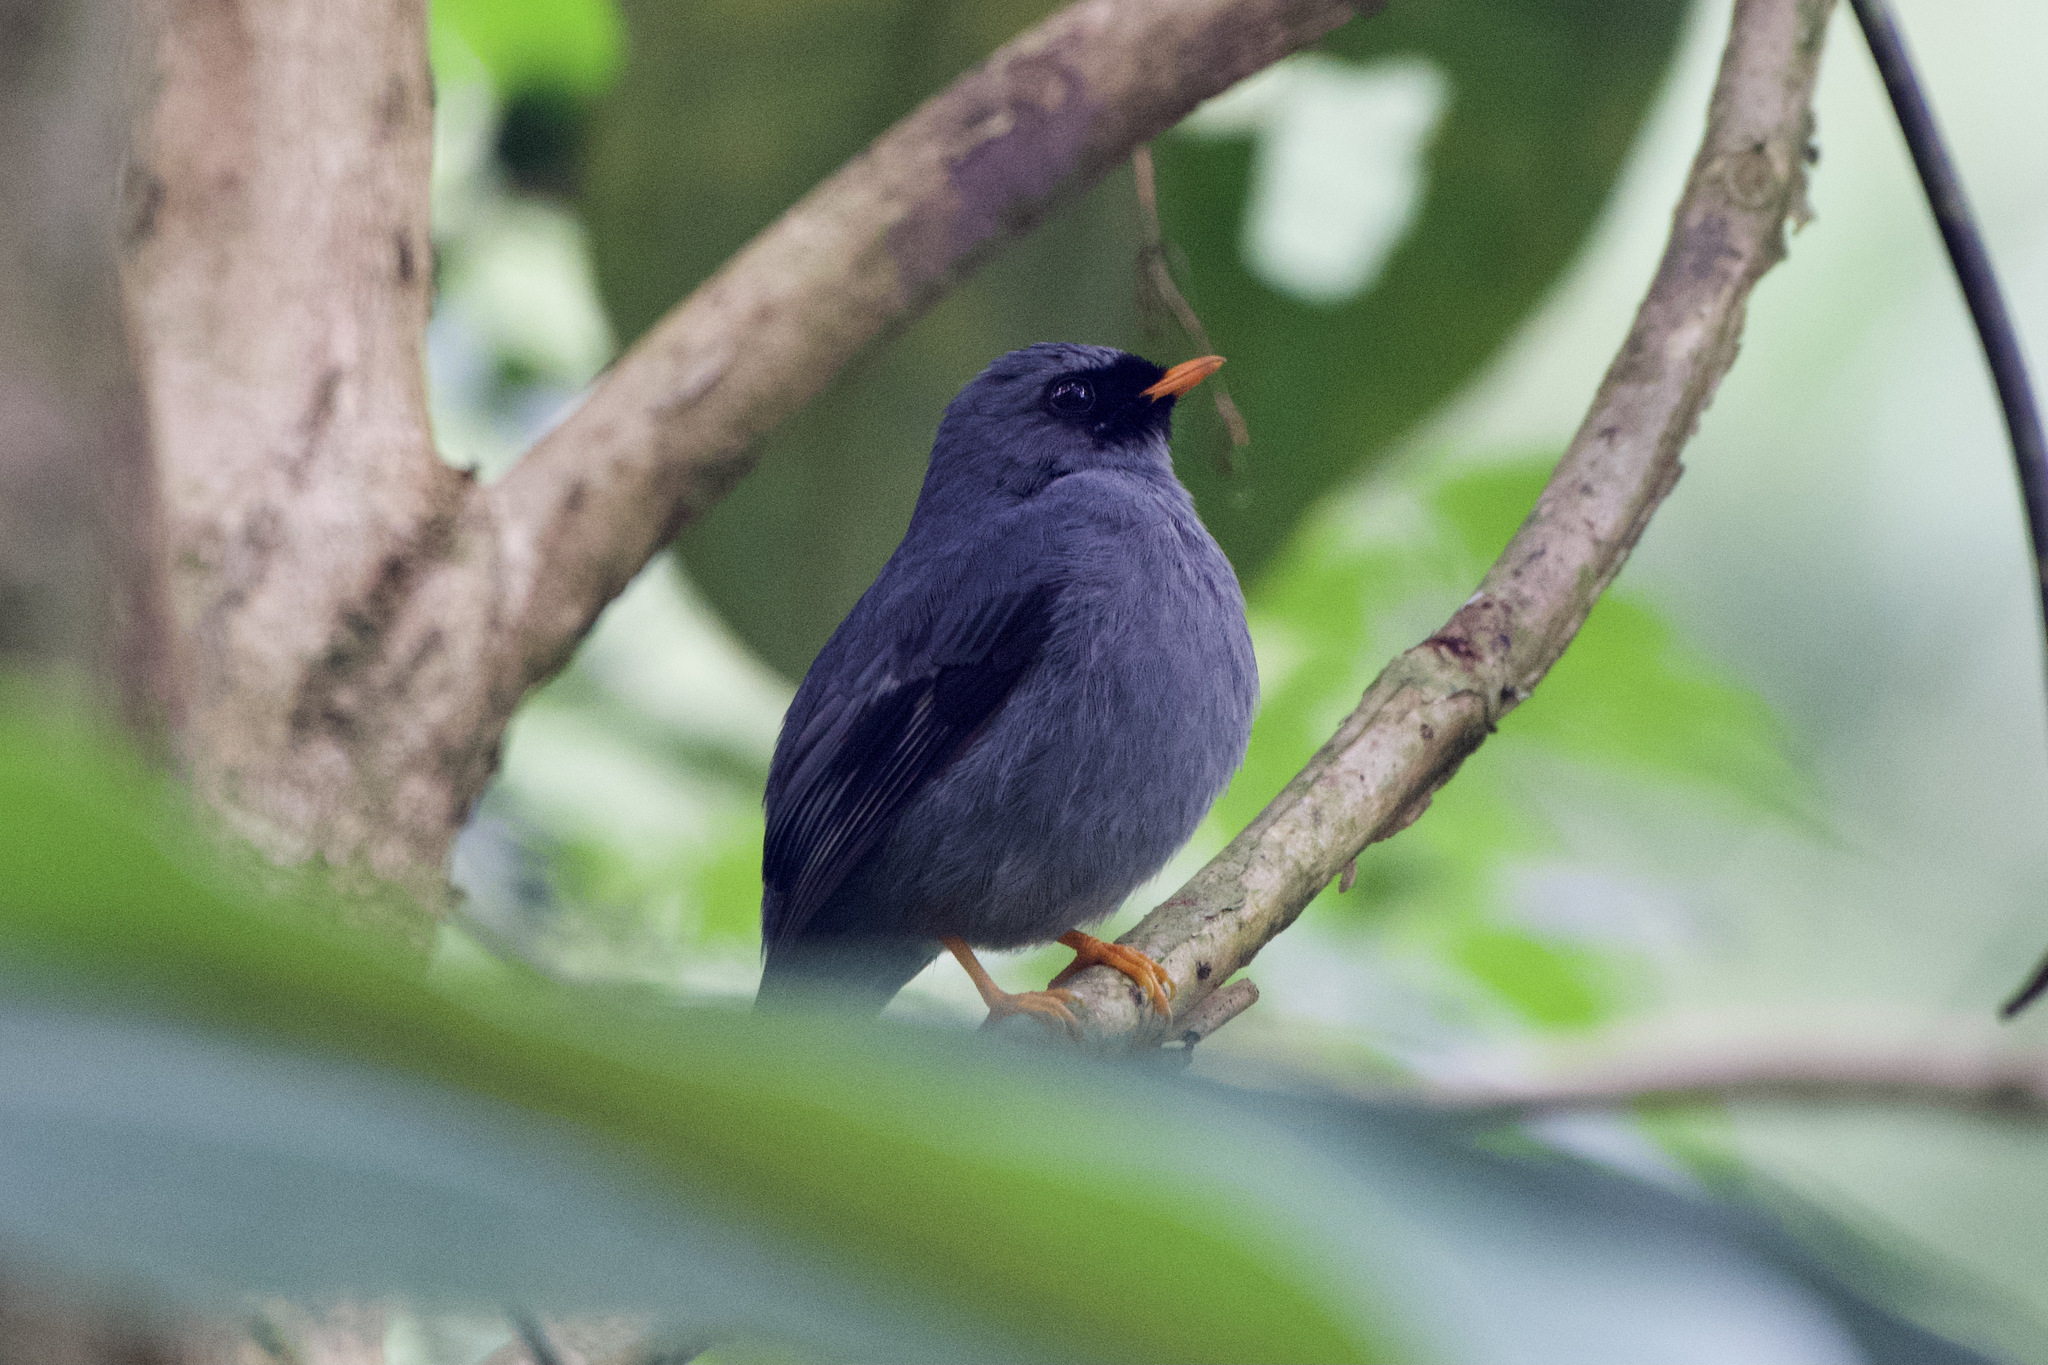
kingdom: Animalia
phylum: Chordata
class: Aves
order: Passeriformes
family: Turdidae
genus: Myadestes
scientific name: Myadestes melanops
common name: Black-faced solitaire
